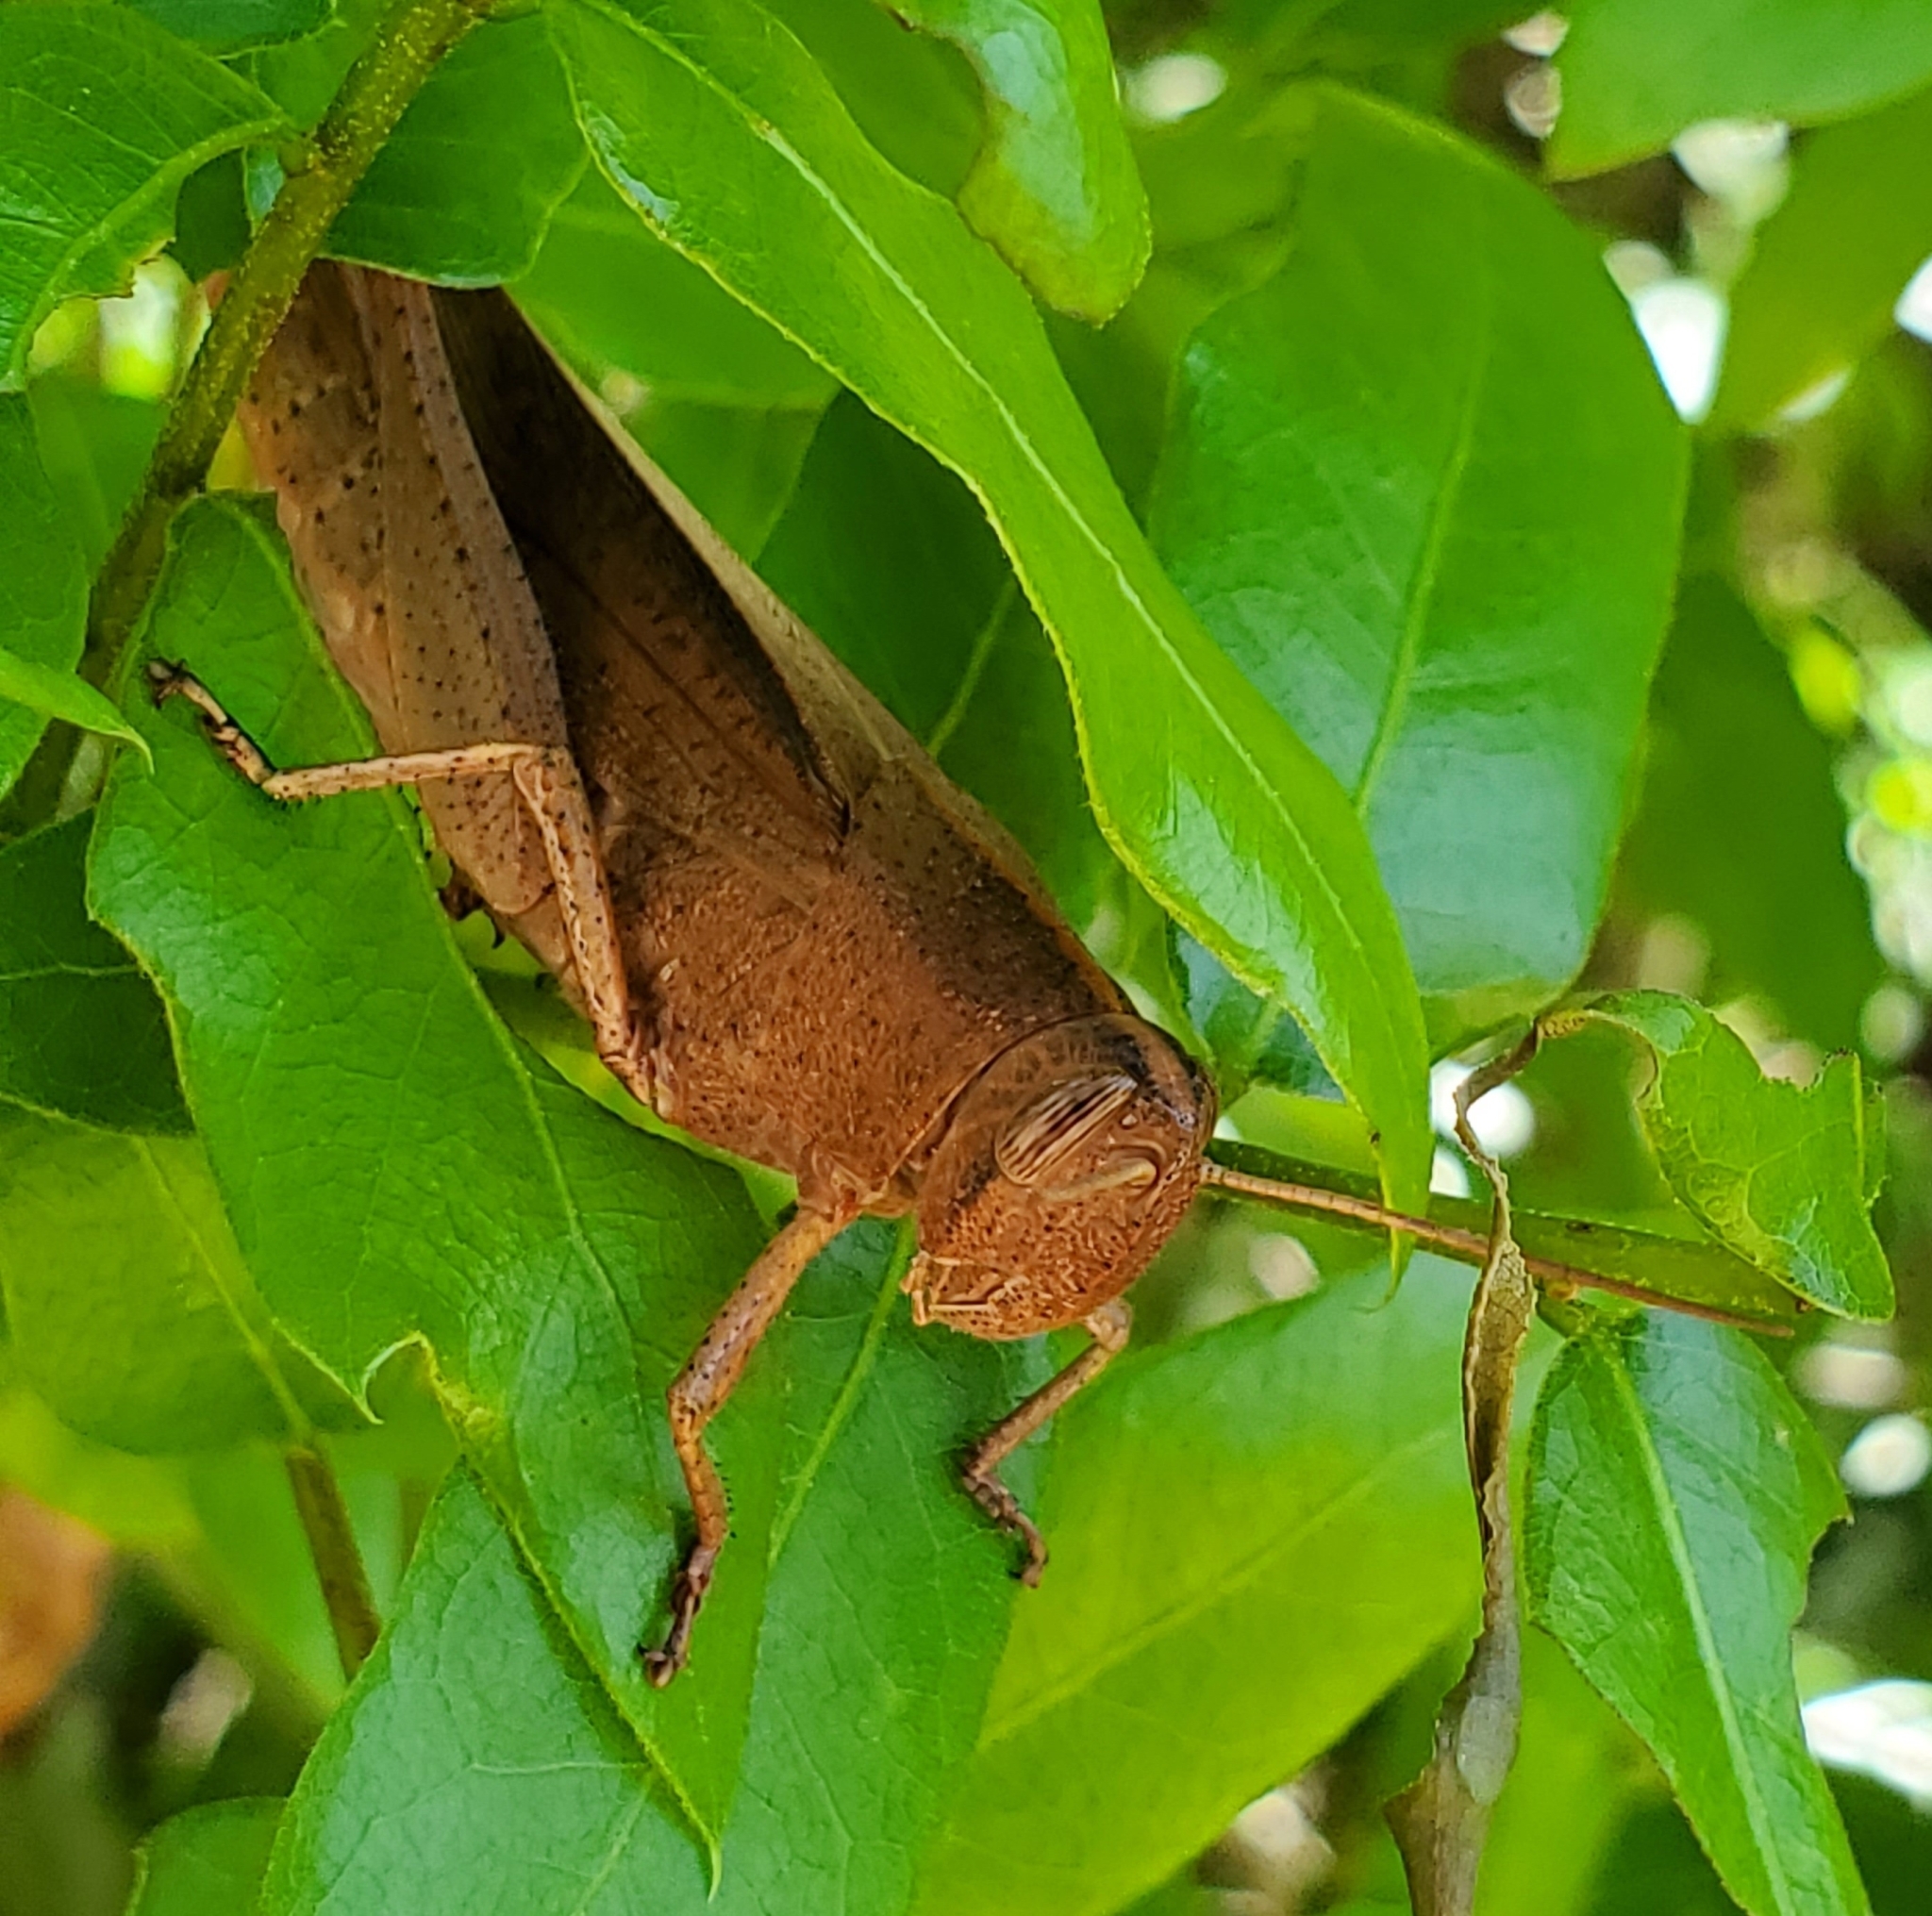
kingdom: Animalia
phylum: Arthropoda
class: Insecta
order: Orthoptera
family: Acrididae
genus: Schistocerca
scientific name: Schistocerca damnifica
